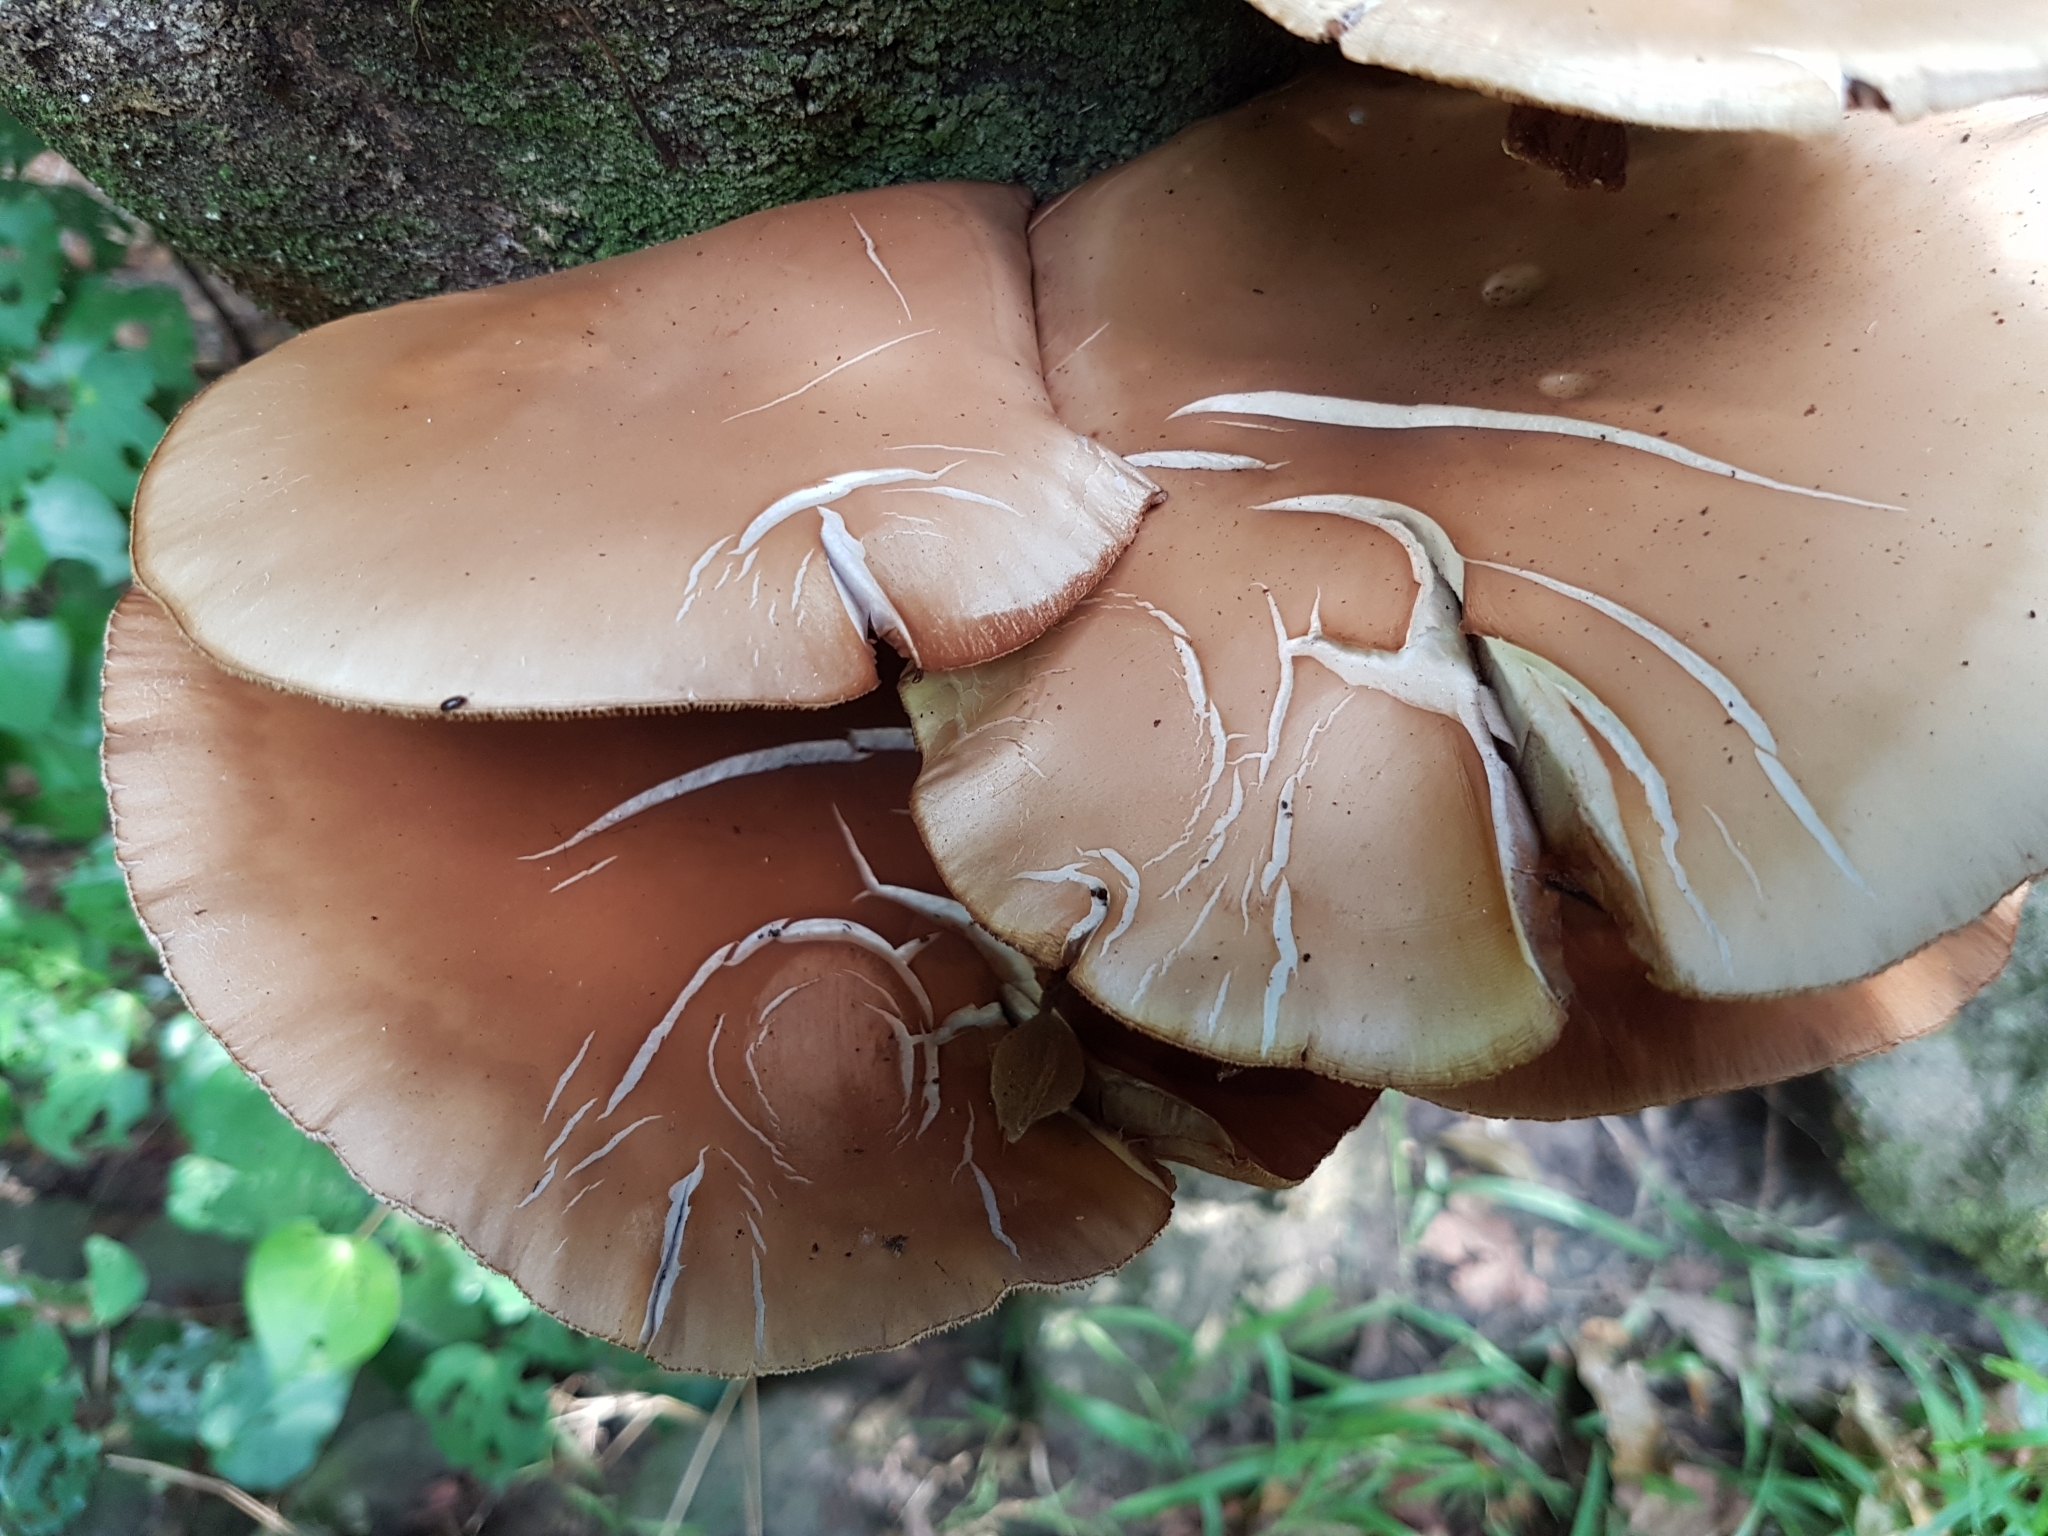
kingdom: Fungi
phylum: Basidiomycota
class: Agaricomycetes
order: Agaricales
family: Tubariaceae
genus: Cyclocybe
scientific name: Cyclocybe parasitica
